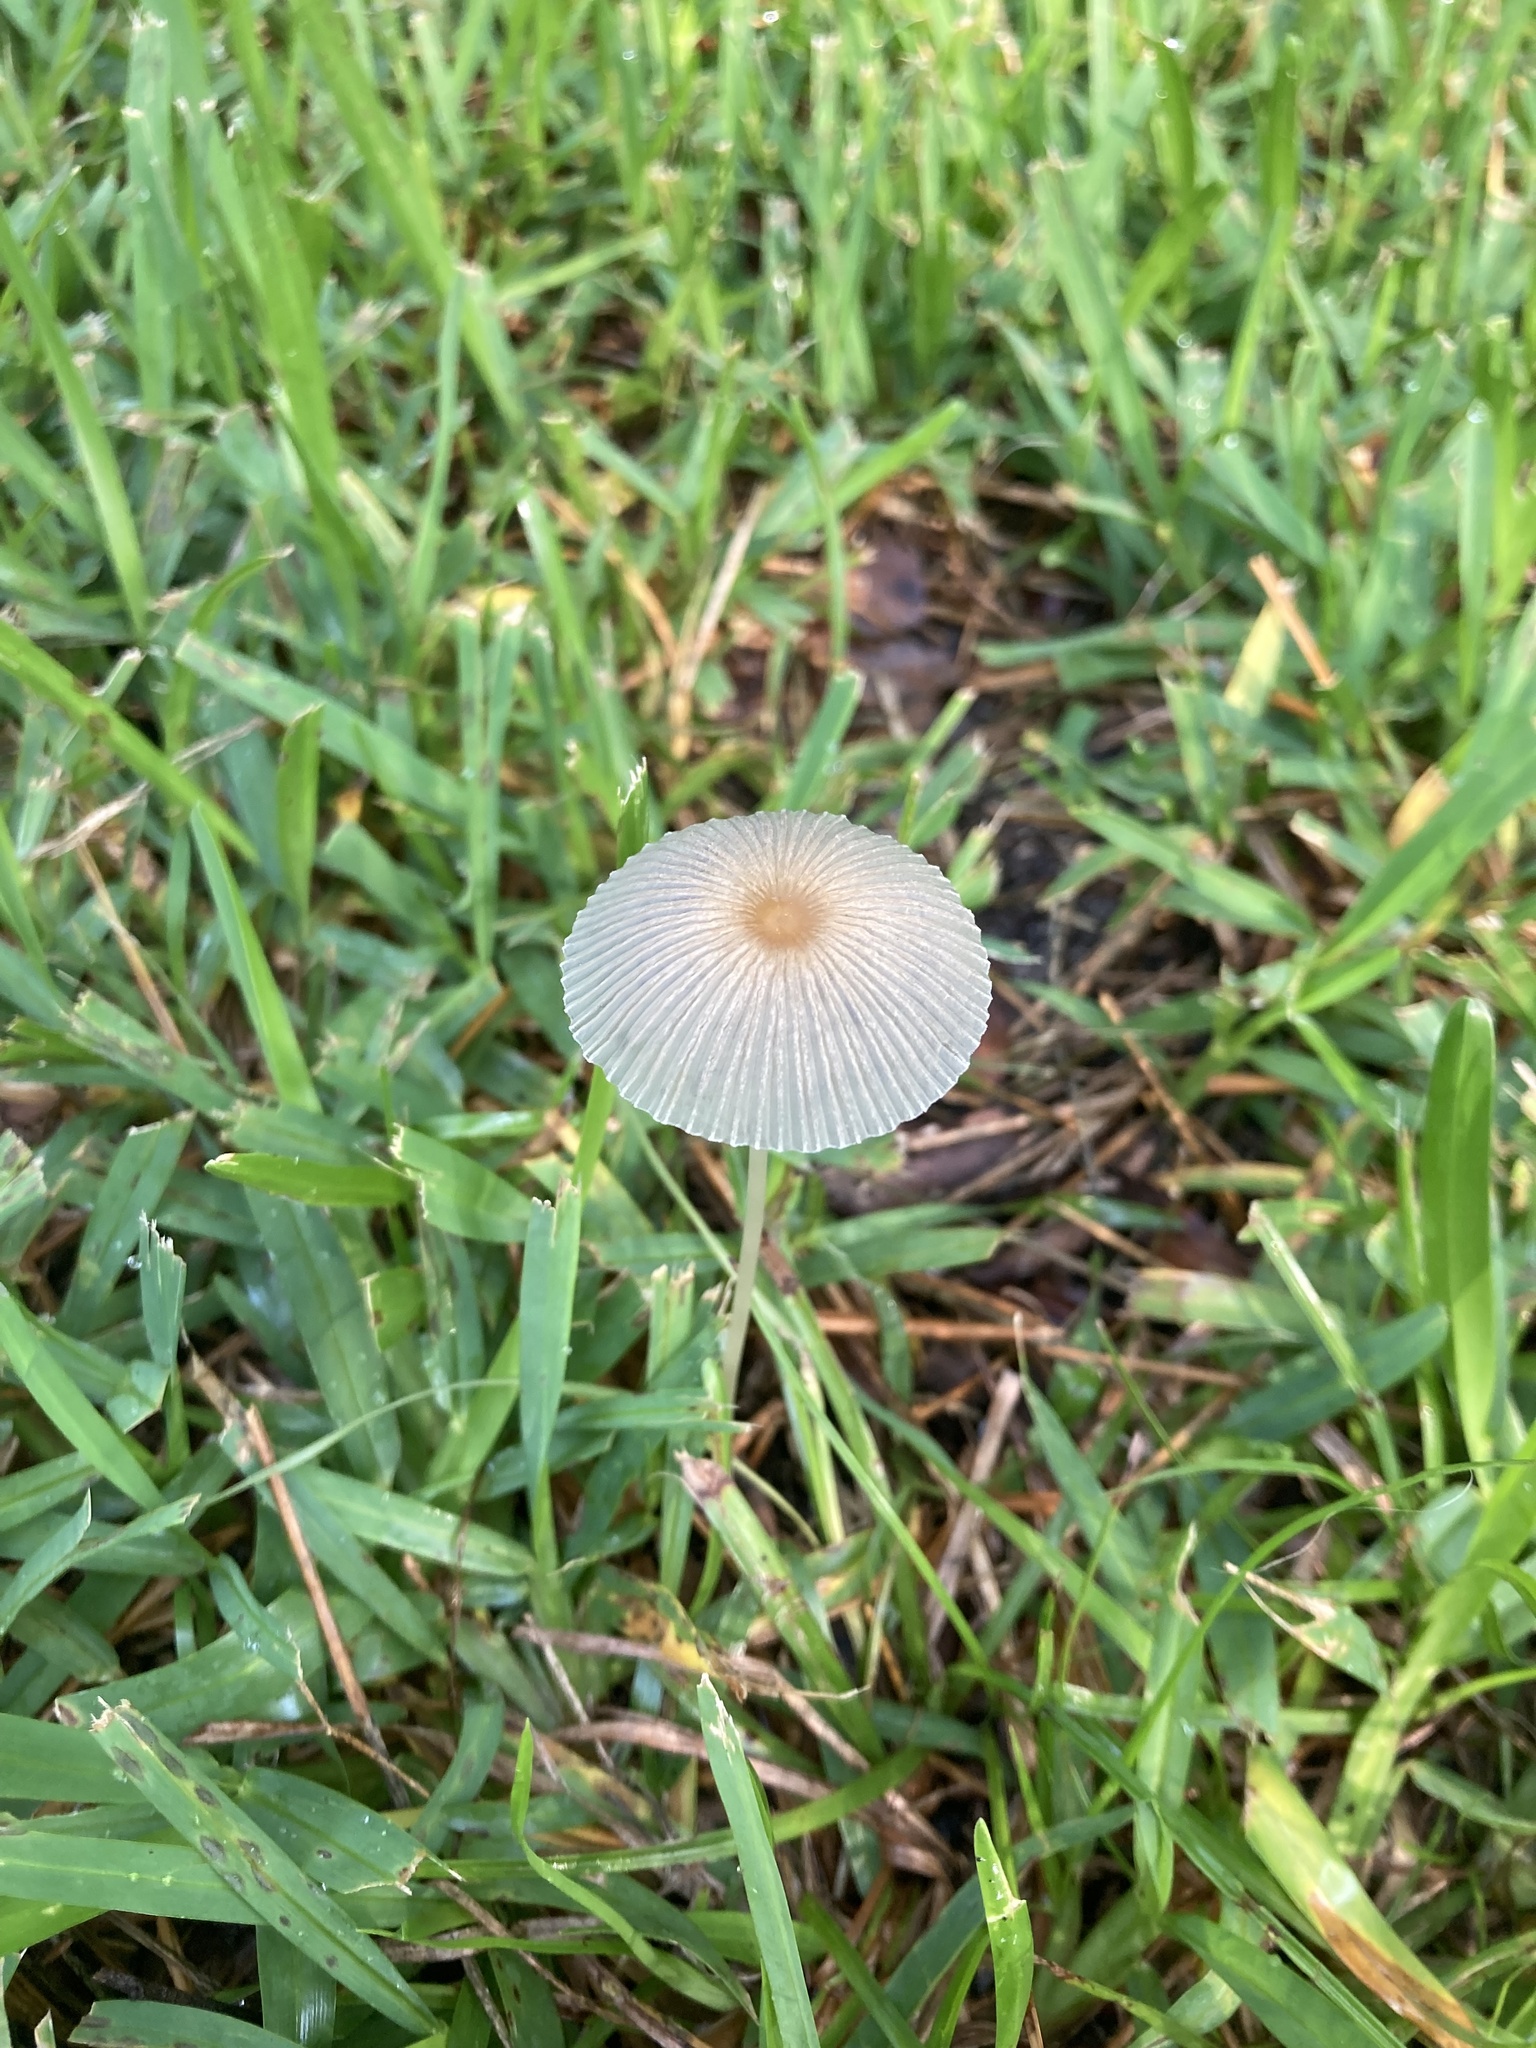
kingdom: Fungi
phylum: Basidiomycota
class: Agaricomycetes
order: Agaricales
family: Psathyrellaceae
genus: Parasola
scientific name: Parasola plicatilis
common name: Pleated inkcap
